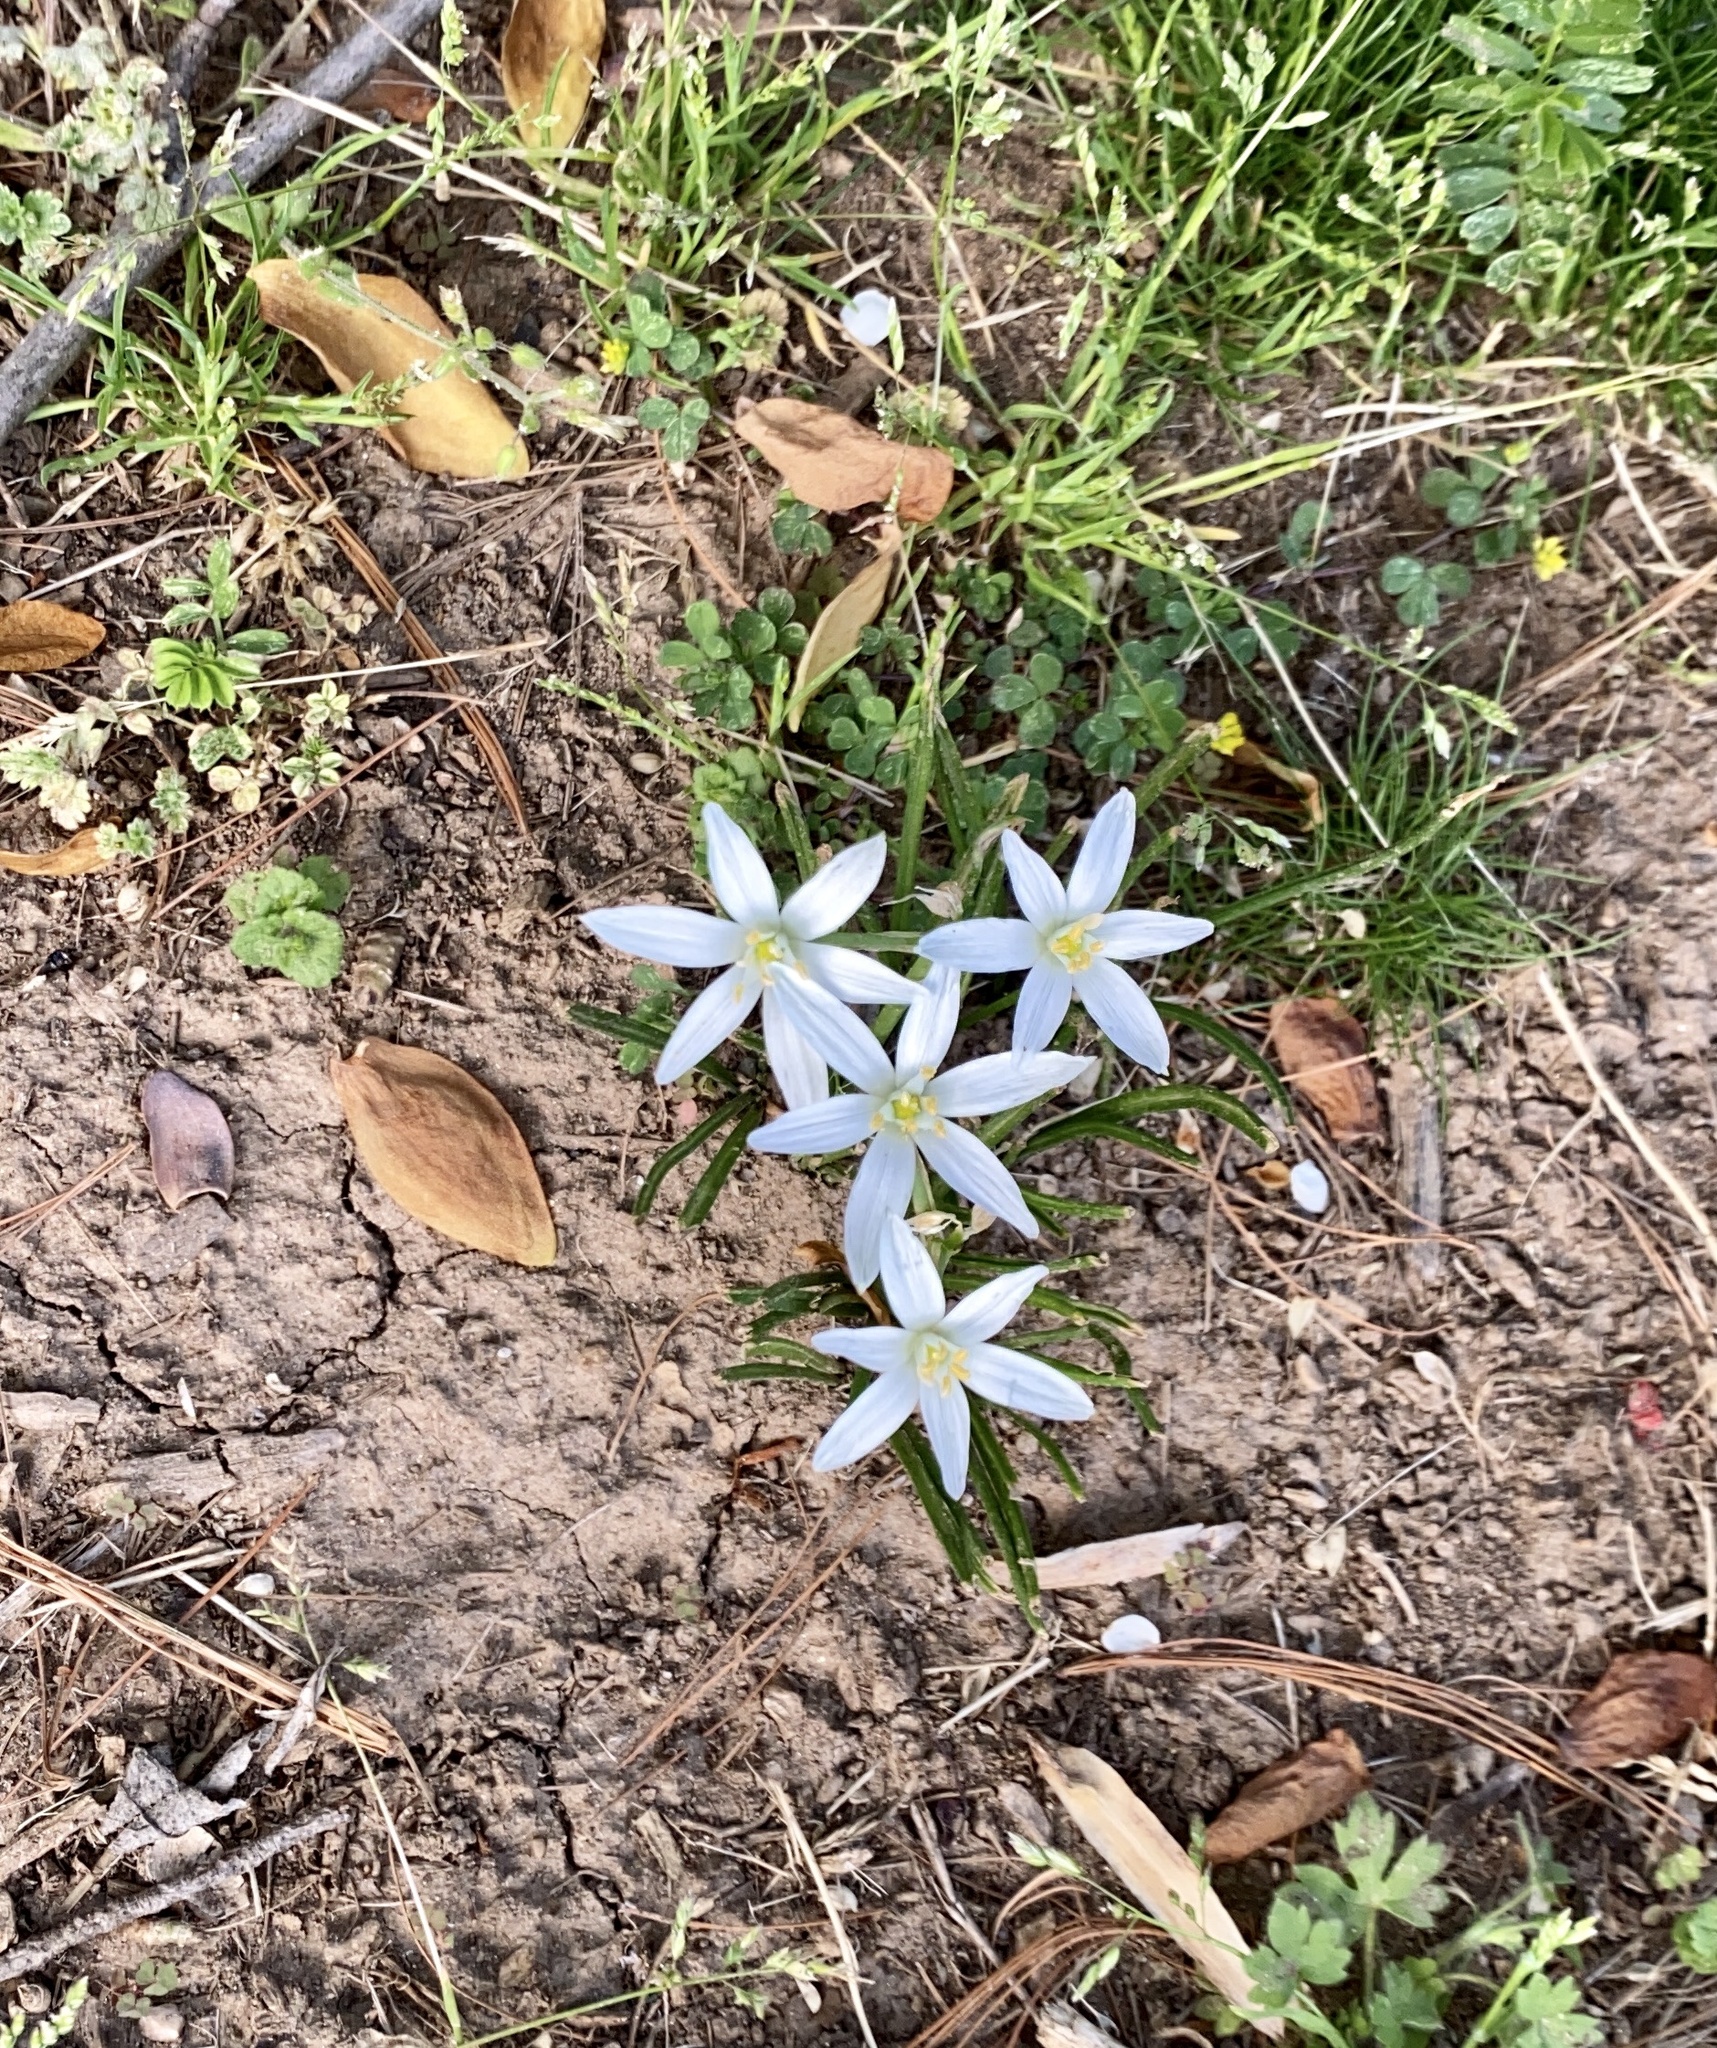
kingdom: Plantae
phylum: Tracheophyta
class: Liliopsida
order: Asparagales
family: Asparagaceae
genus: Ornithogalum
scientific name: Ornithogalum umbellatum
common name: Garden star-of-bethlehem
